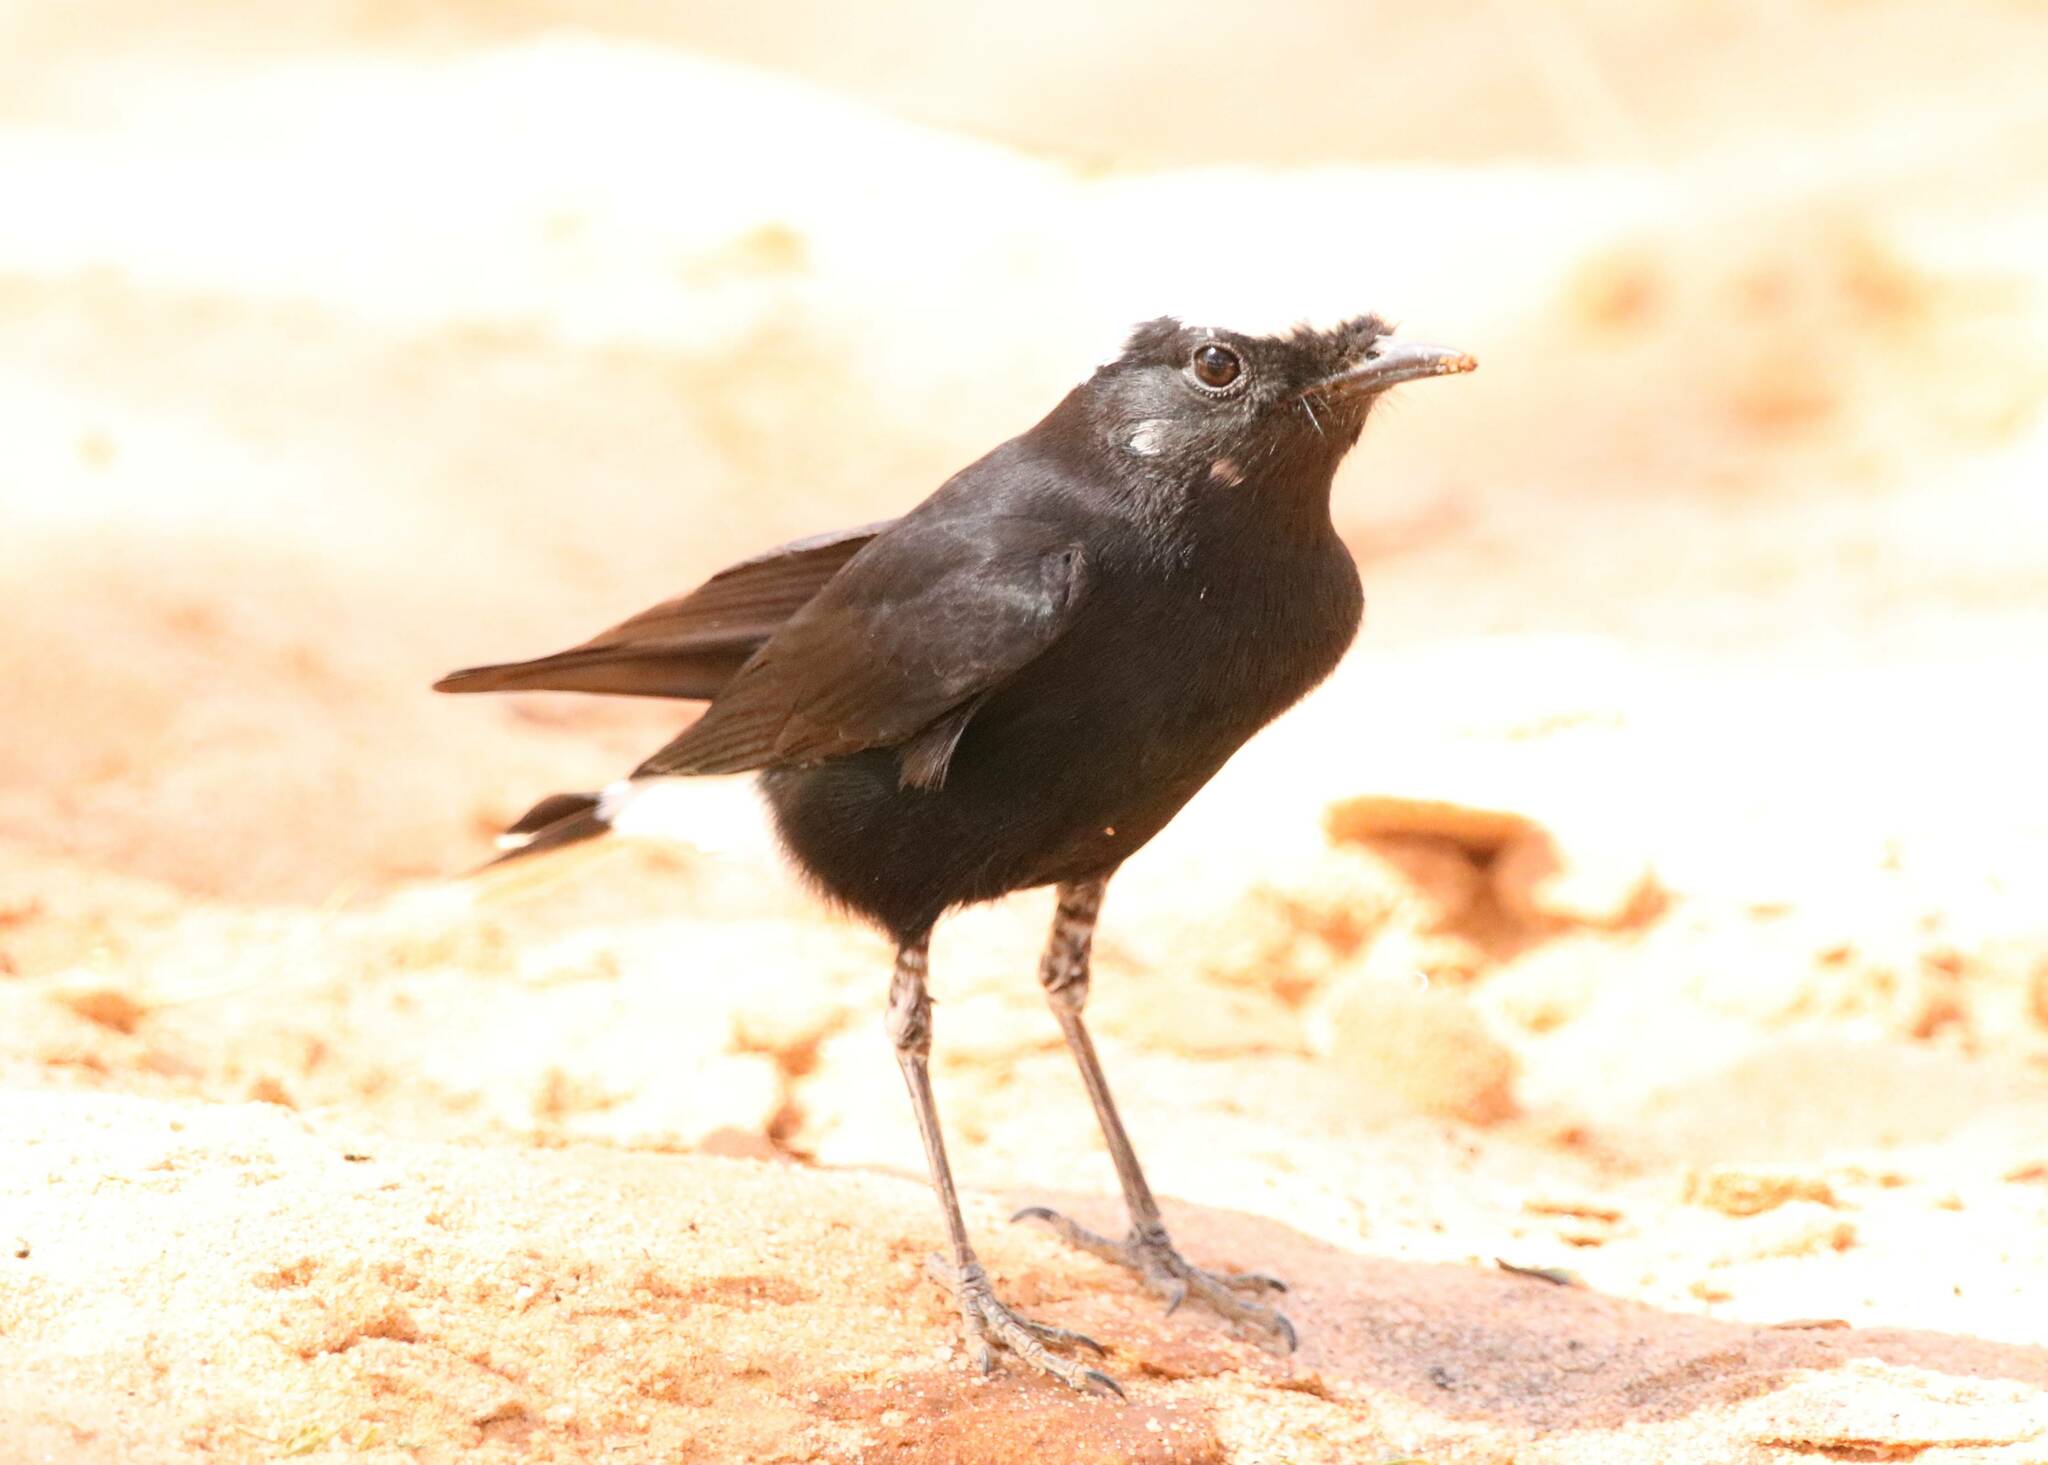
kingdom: Animalia
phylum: Chordata
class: Aves
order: Passeriformes
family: Muscicapidae
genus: Oenanthe
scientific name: Oenanthe leucopyga
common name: White-crowned wheatear
